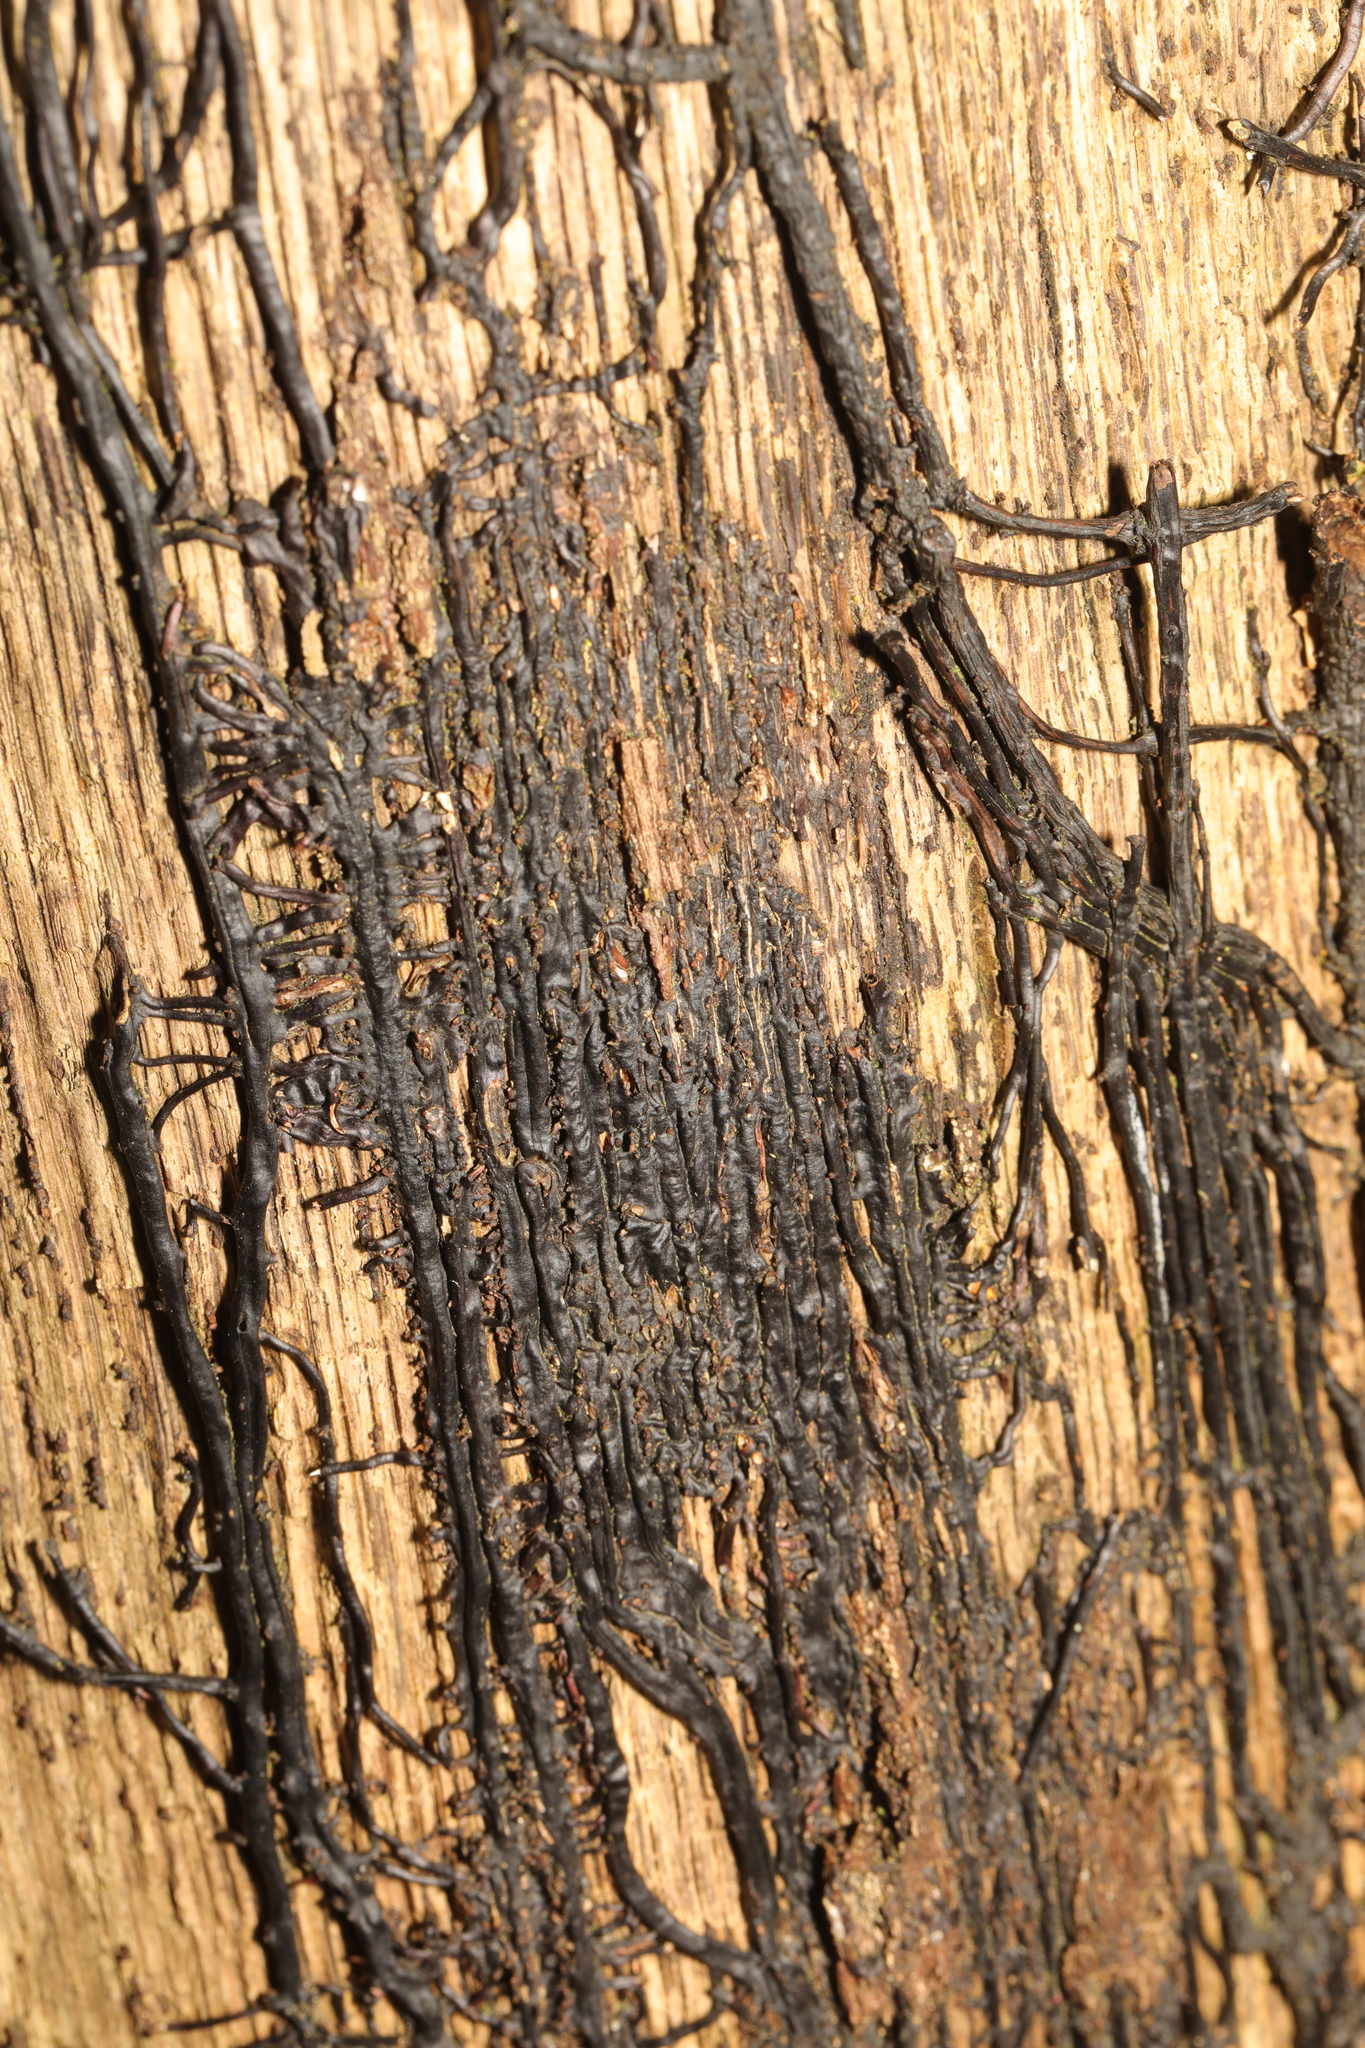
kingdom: Fungi
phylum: Basidiomycota
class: Agaricomycetes
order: Agaricales
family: Physalacriaceae
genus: Armillaria
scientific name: Armillaria mellea
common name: Honey fungus
